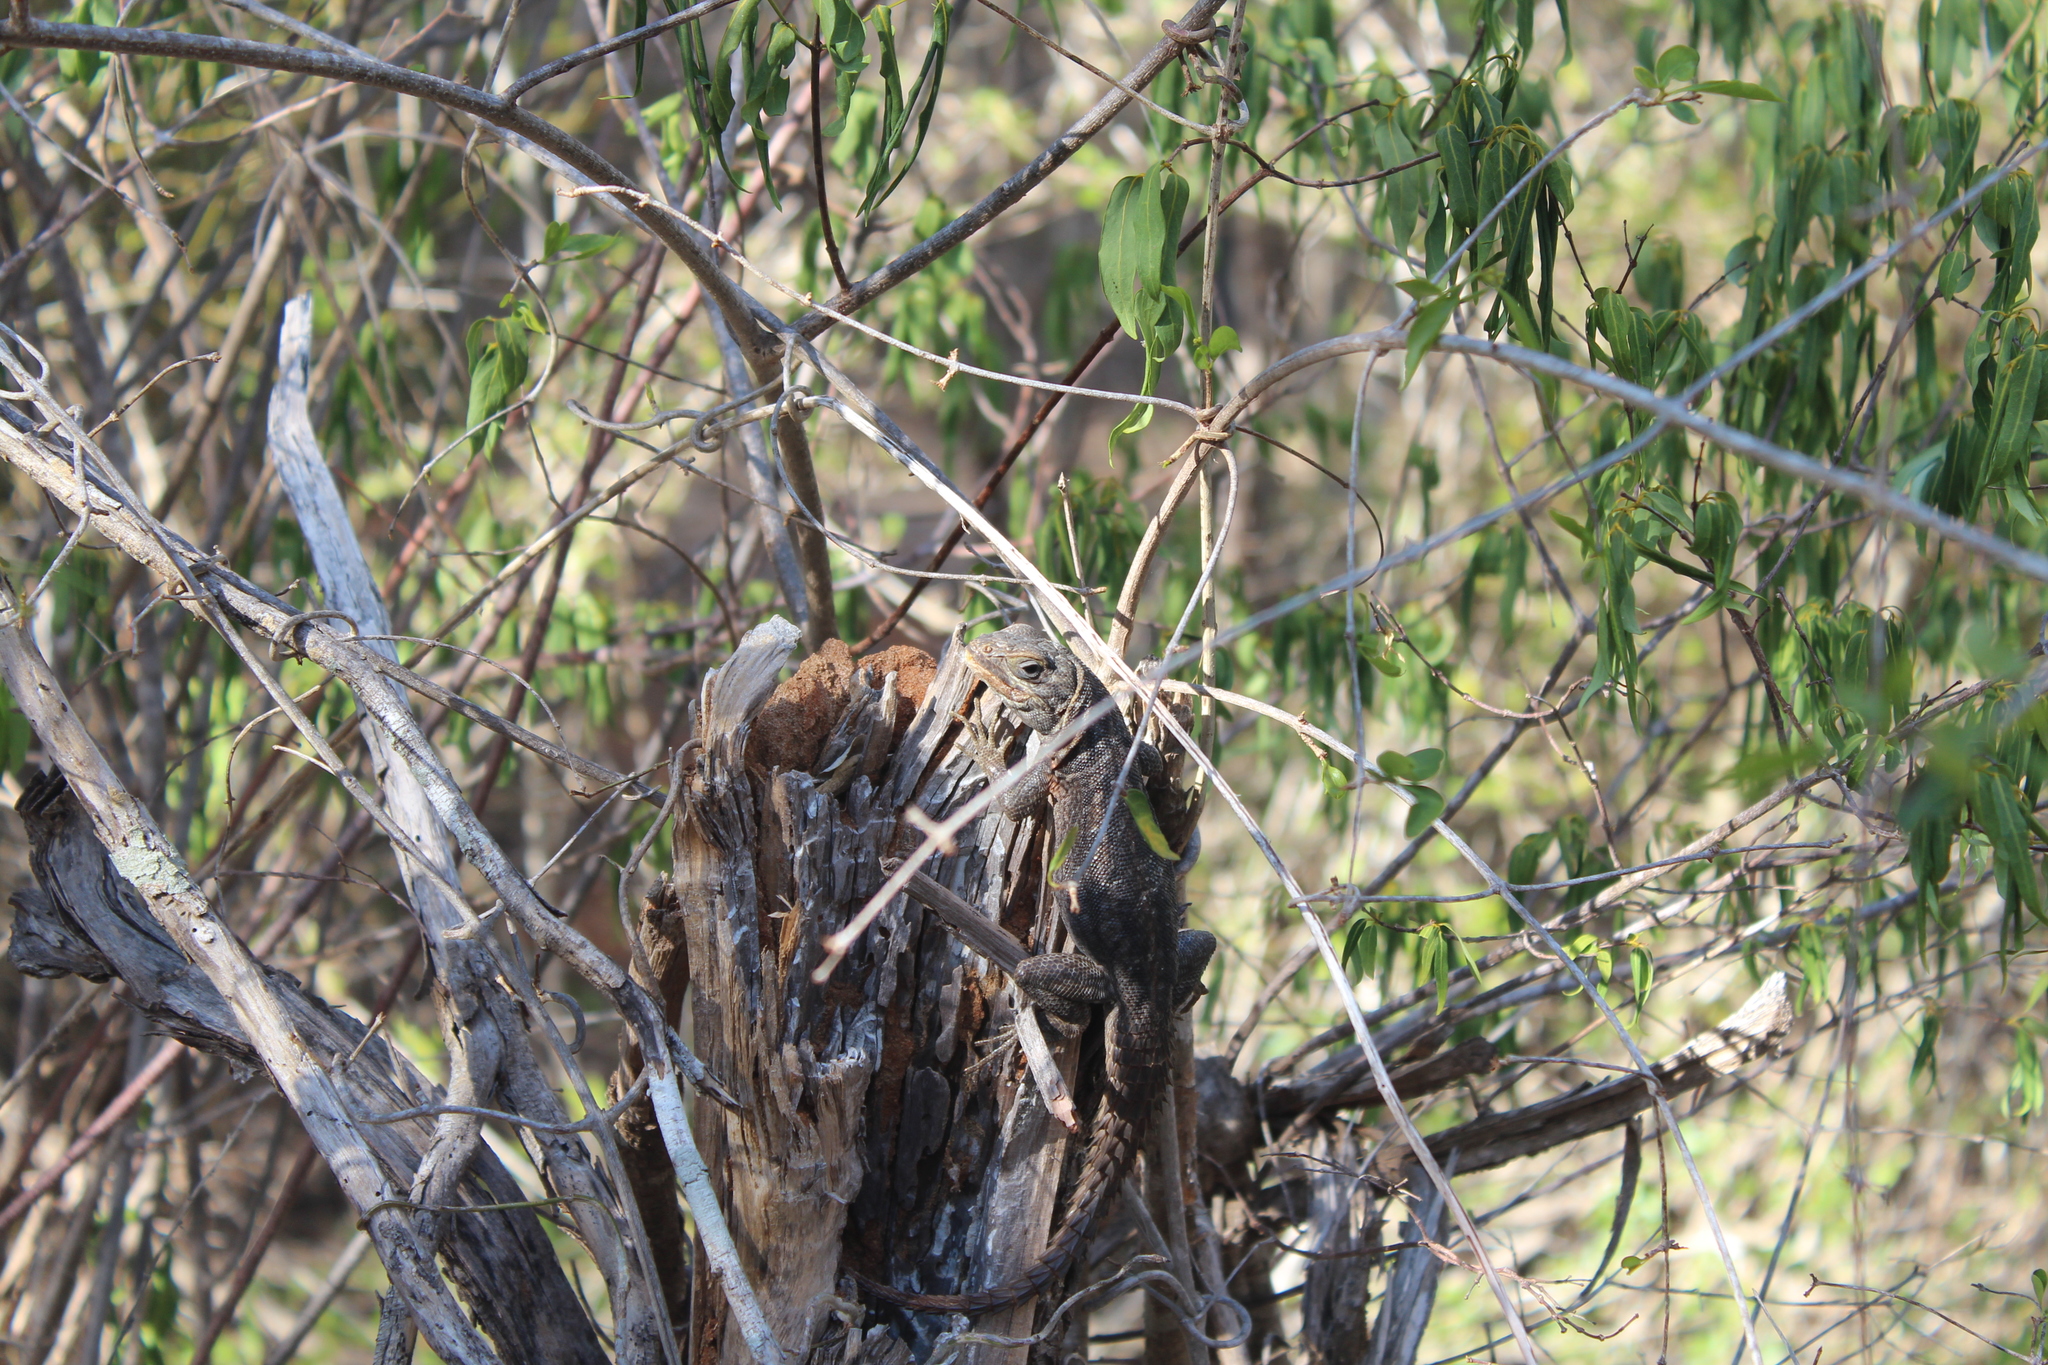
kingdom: Animalia
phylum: Chordata
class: Squamata
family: Opluridae
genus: Oplurus
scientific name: Oplurus cyclurus
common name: Merrem's madagascar swift
